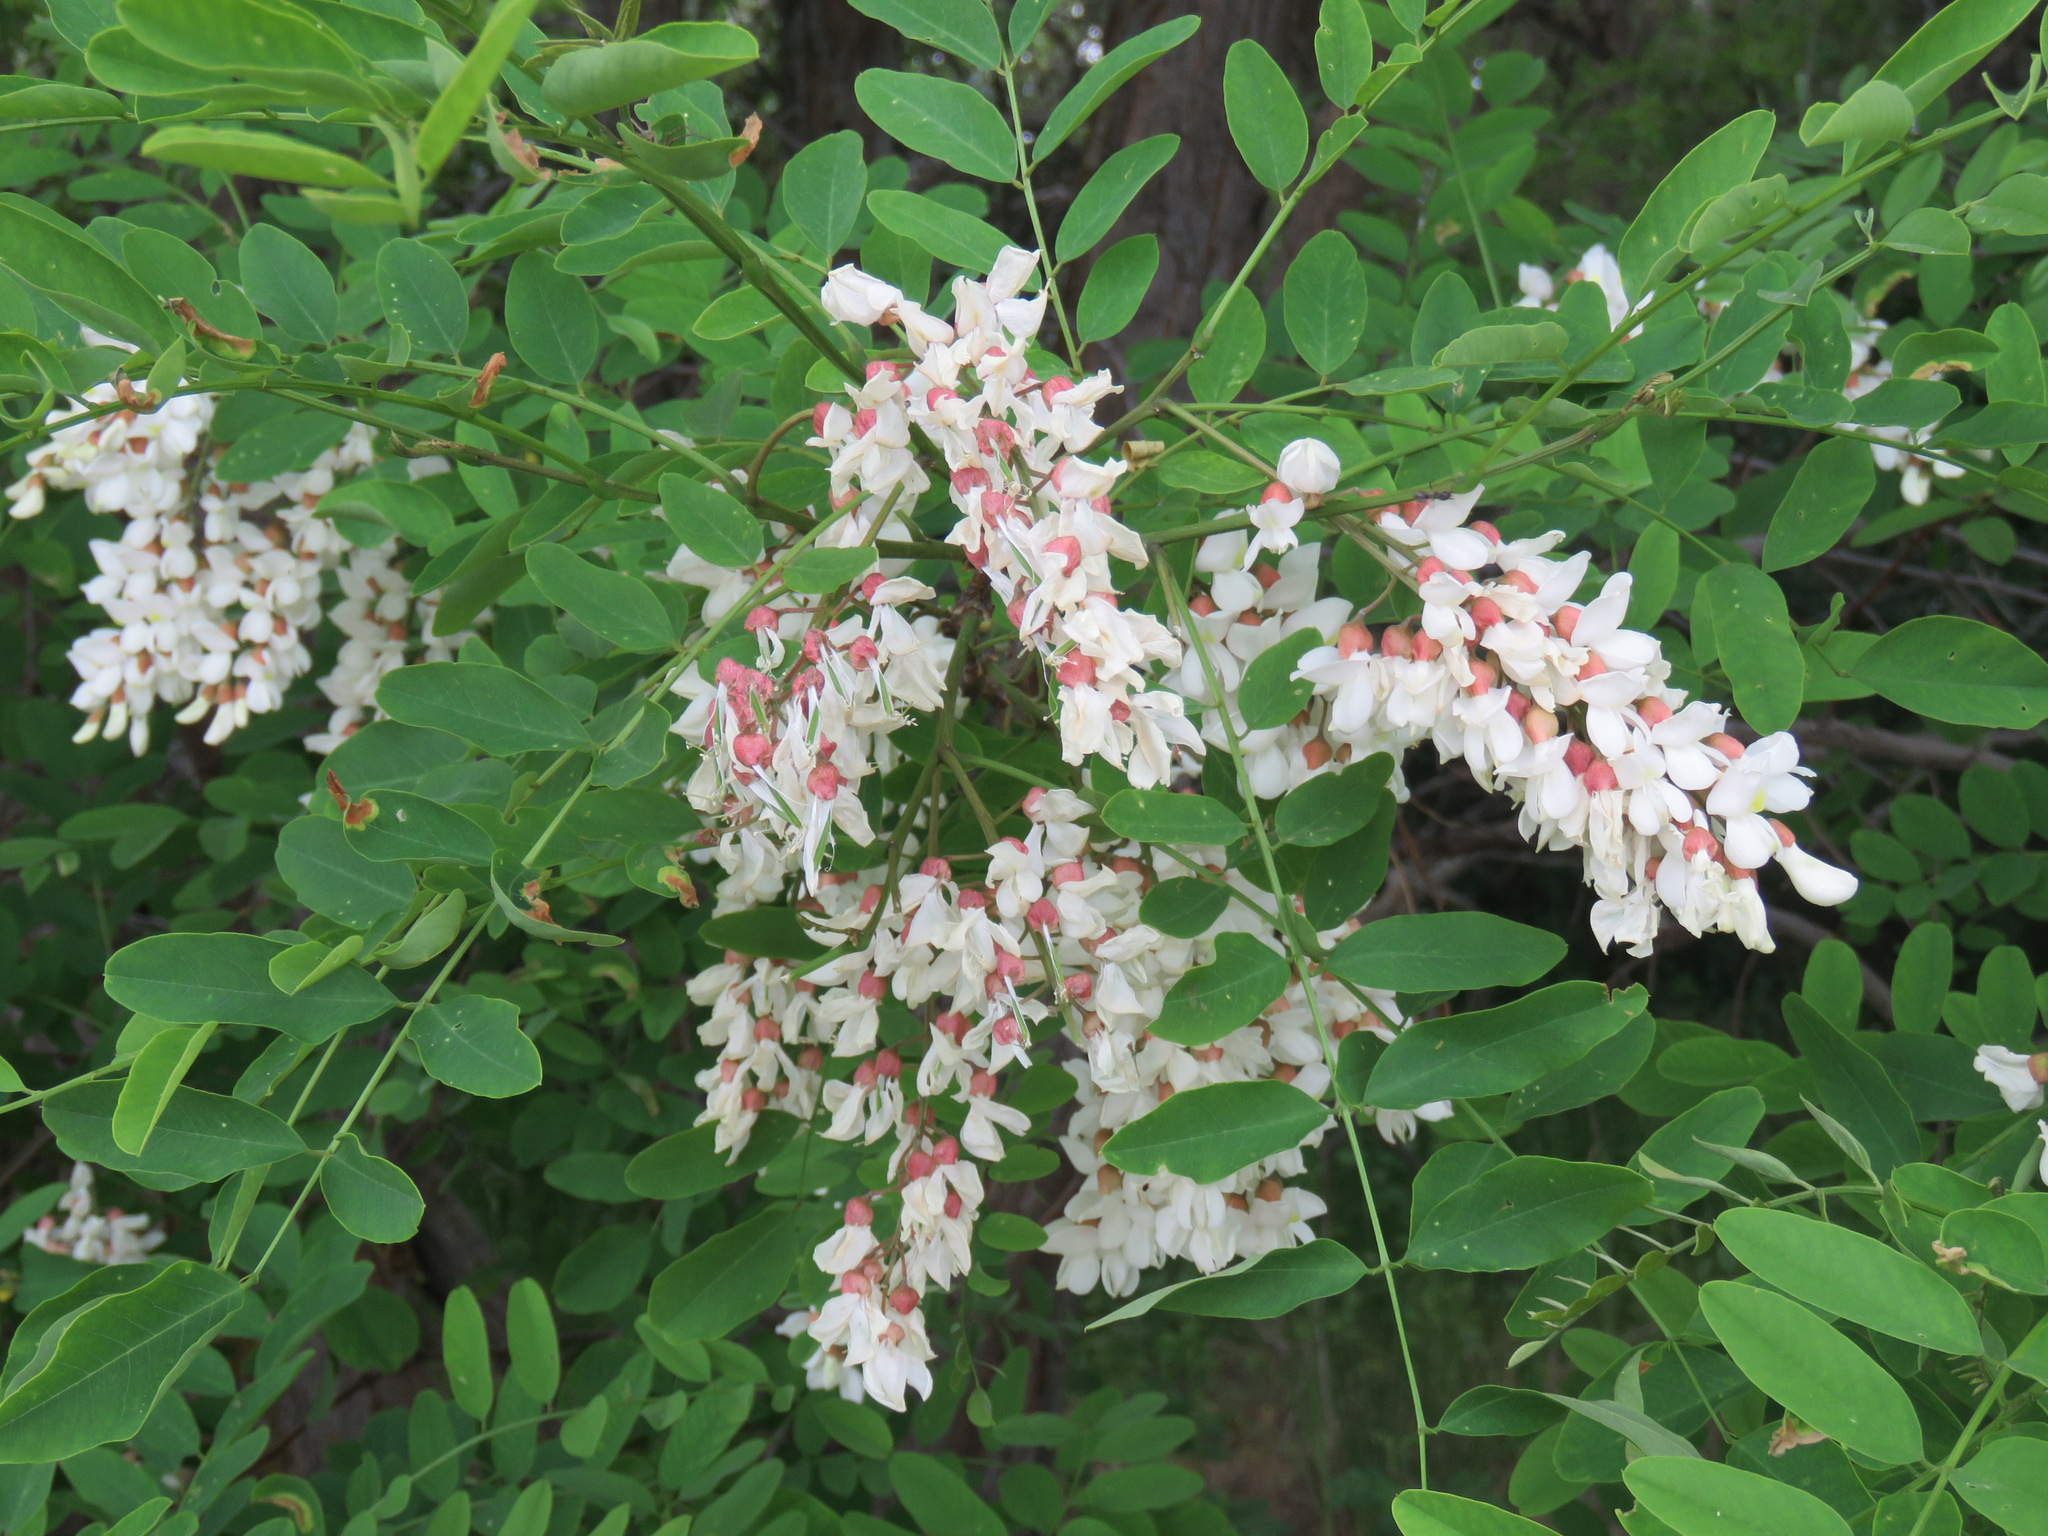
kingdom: Plantae
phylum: Tracheophyta
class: Magnoliopsida
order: Fabales
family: Fabaceae
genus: Robinia
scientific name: Robinia pseudoacacia
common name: Black locust
